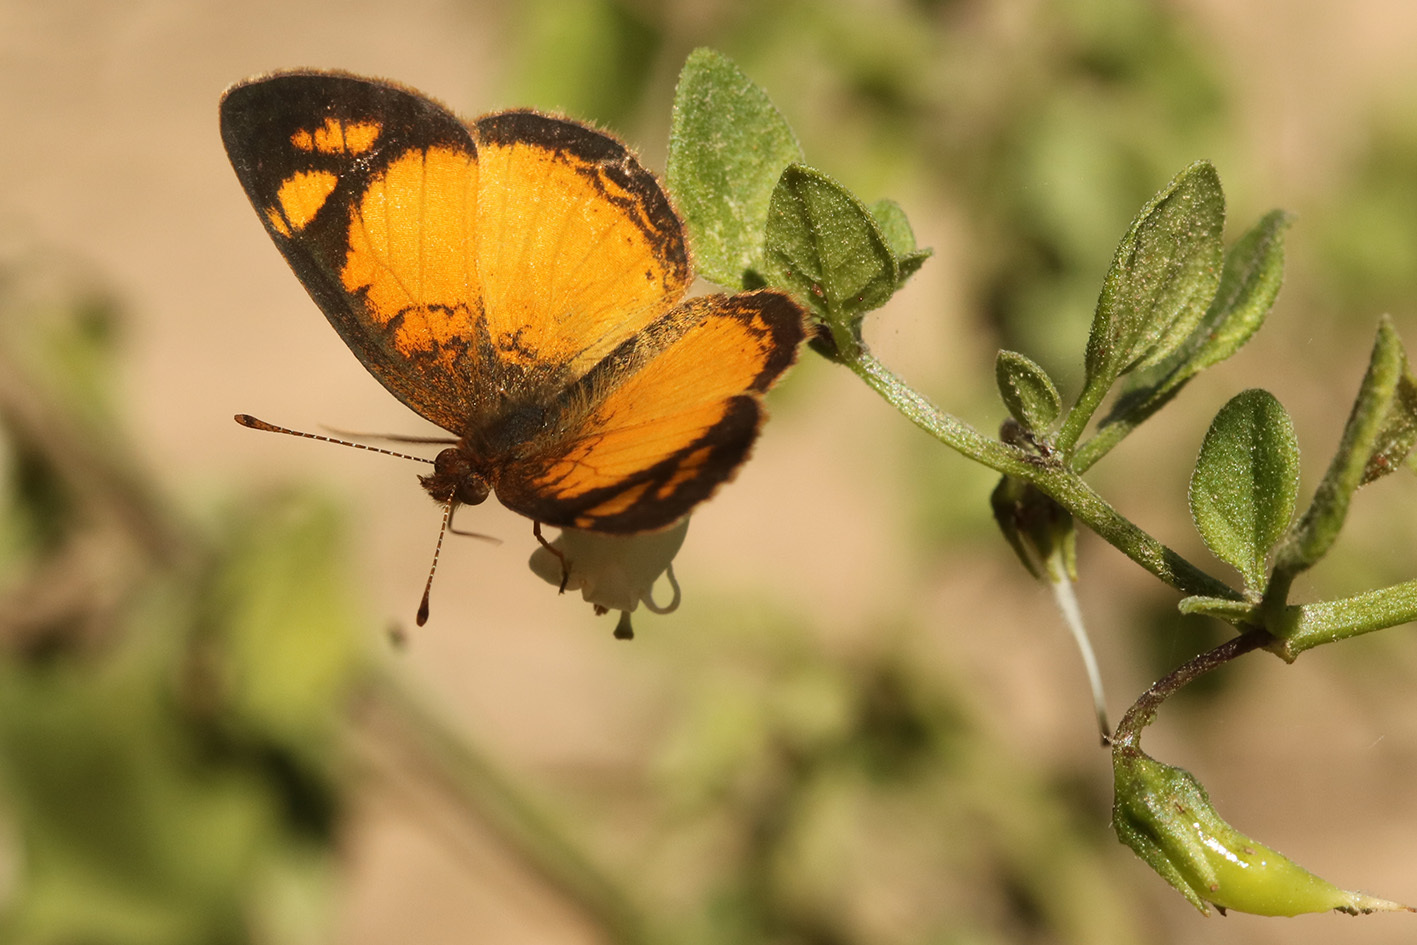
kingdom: Animalia
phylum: Arthropoda
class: Insecta
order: Lepidoptera
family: Nymphalidae
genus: Tegosa
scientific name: Tegosa claudina
